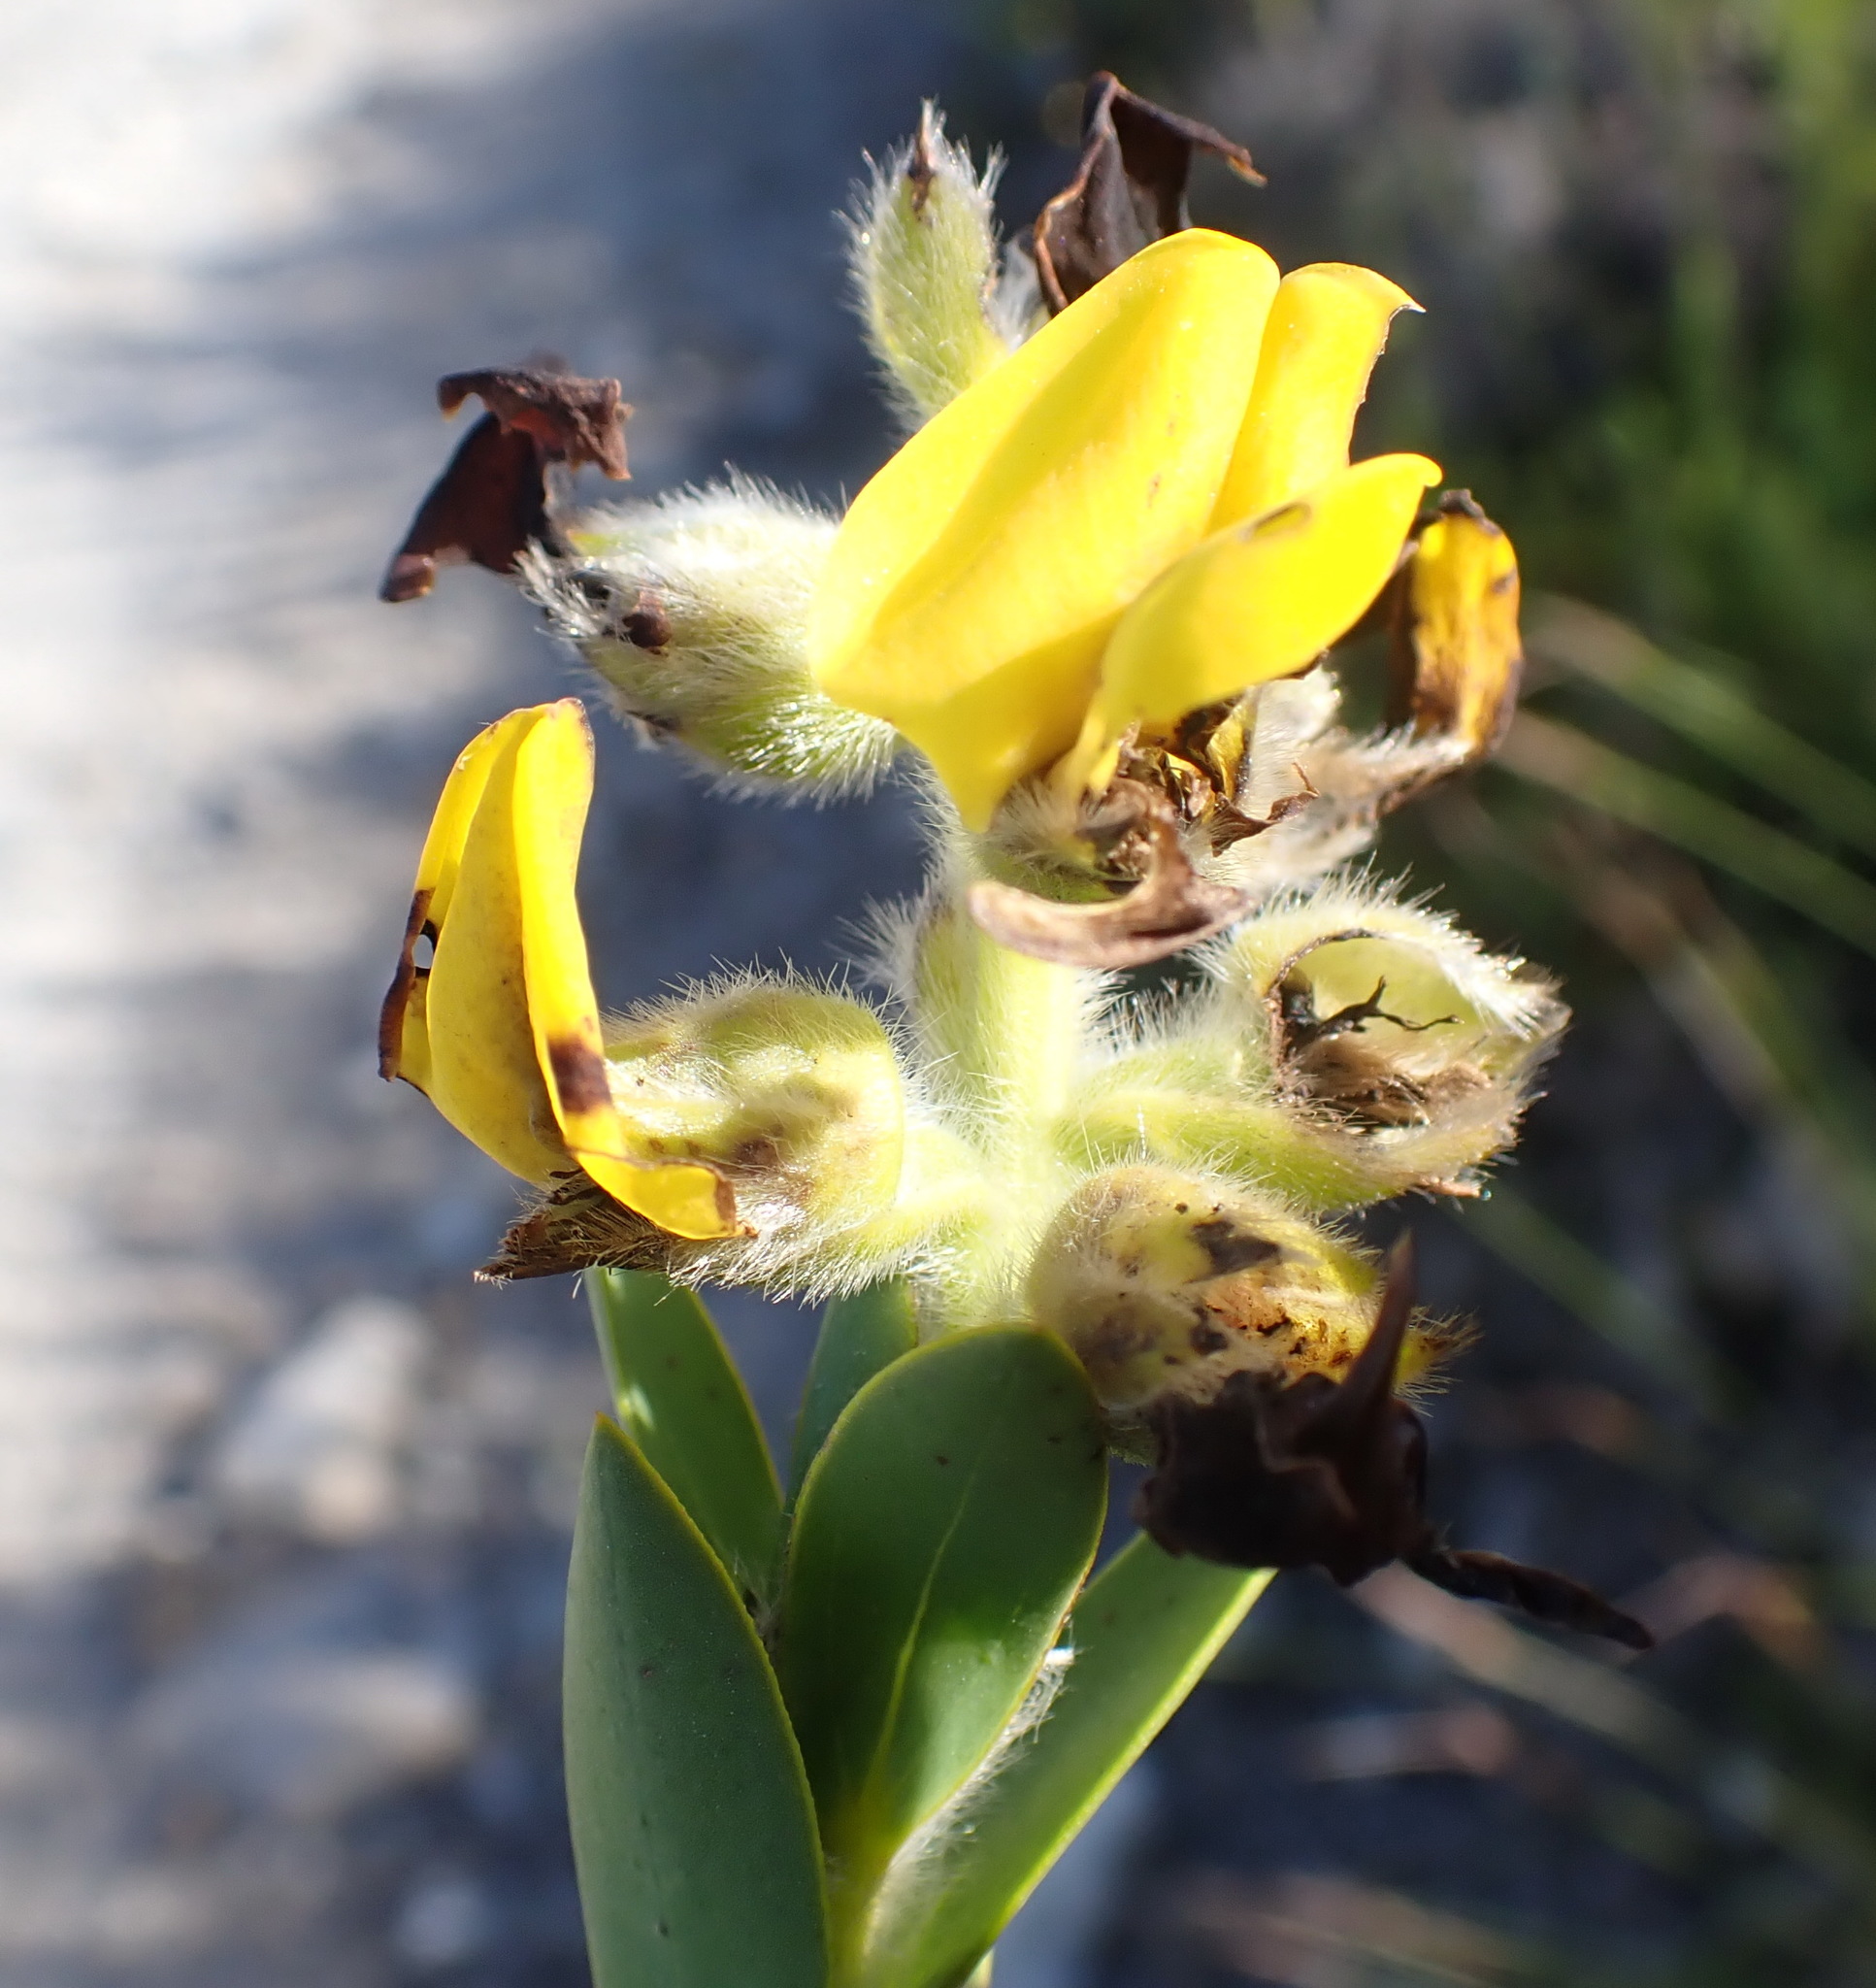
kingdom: Plantae
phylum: Tracheophyta
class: Magnoliopsida
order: Fabales
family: Fabaceae
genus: Liparia
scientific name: Liparia hirsuta
